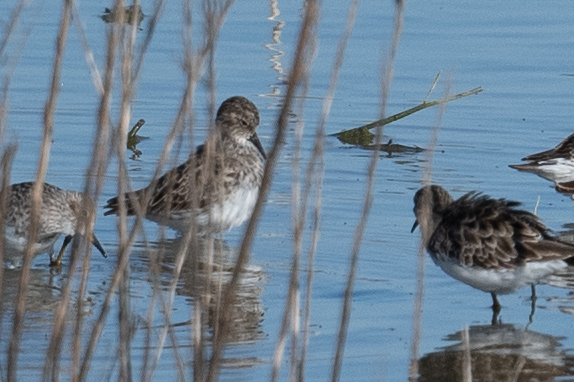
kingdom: Animalia
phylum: Chordata
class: Aves
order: Charadriiformes
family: Scolopacidae
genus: Calidris
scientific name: Calidris minutilla
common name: Least sandpiper
